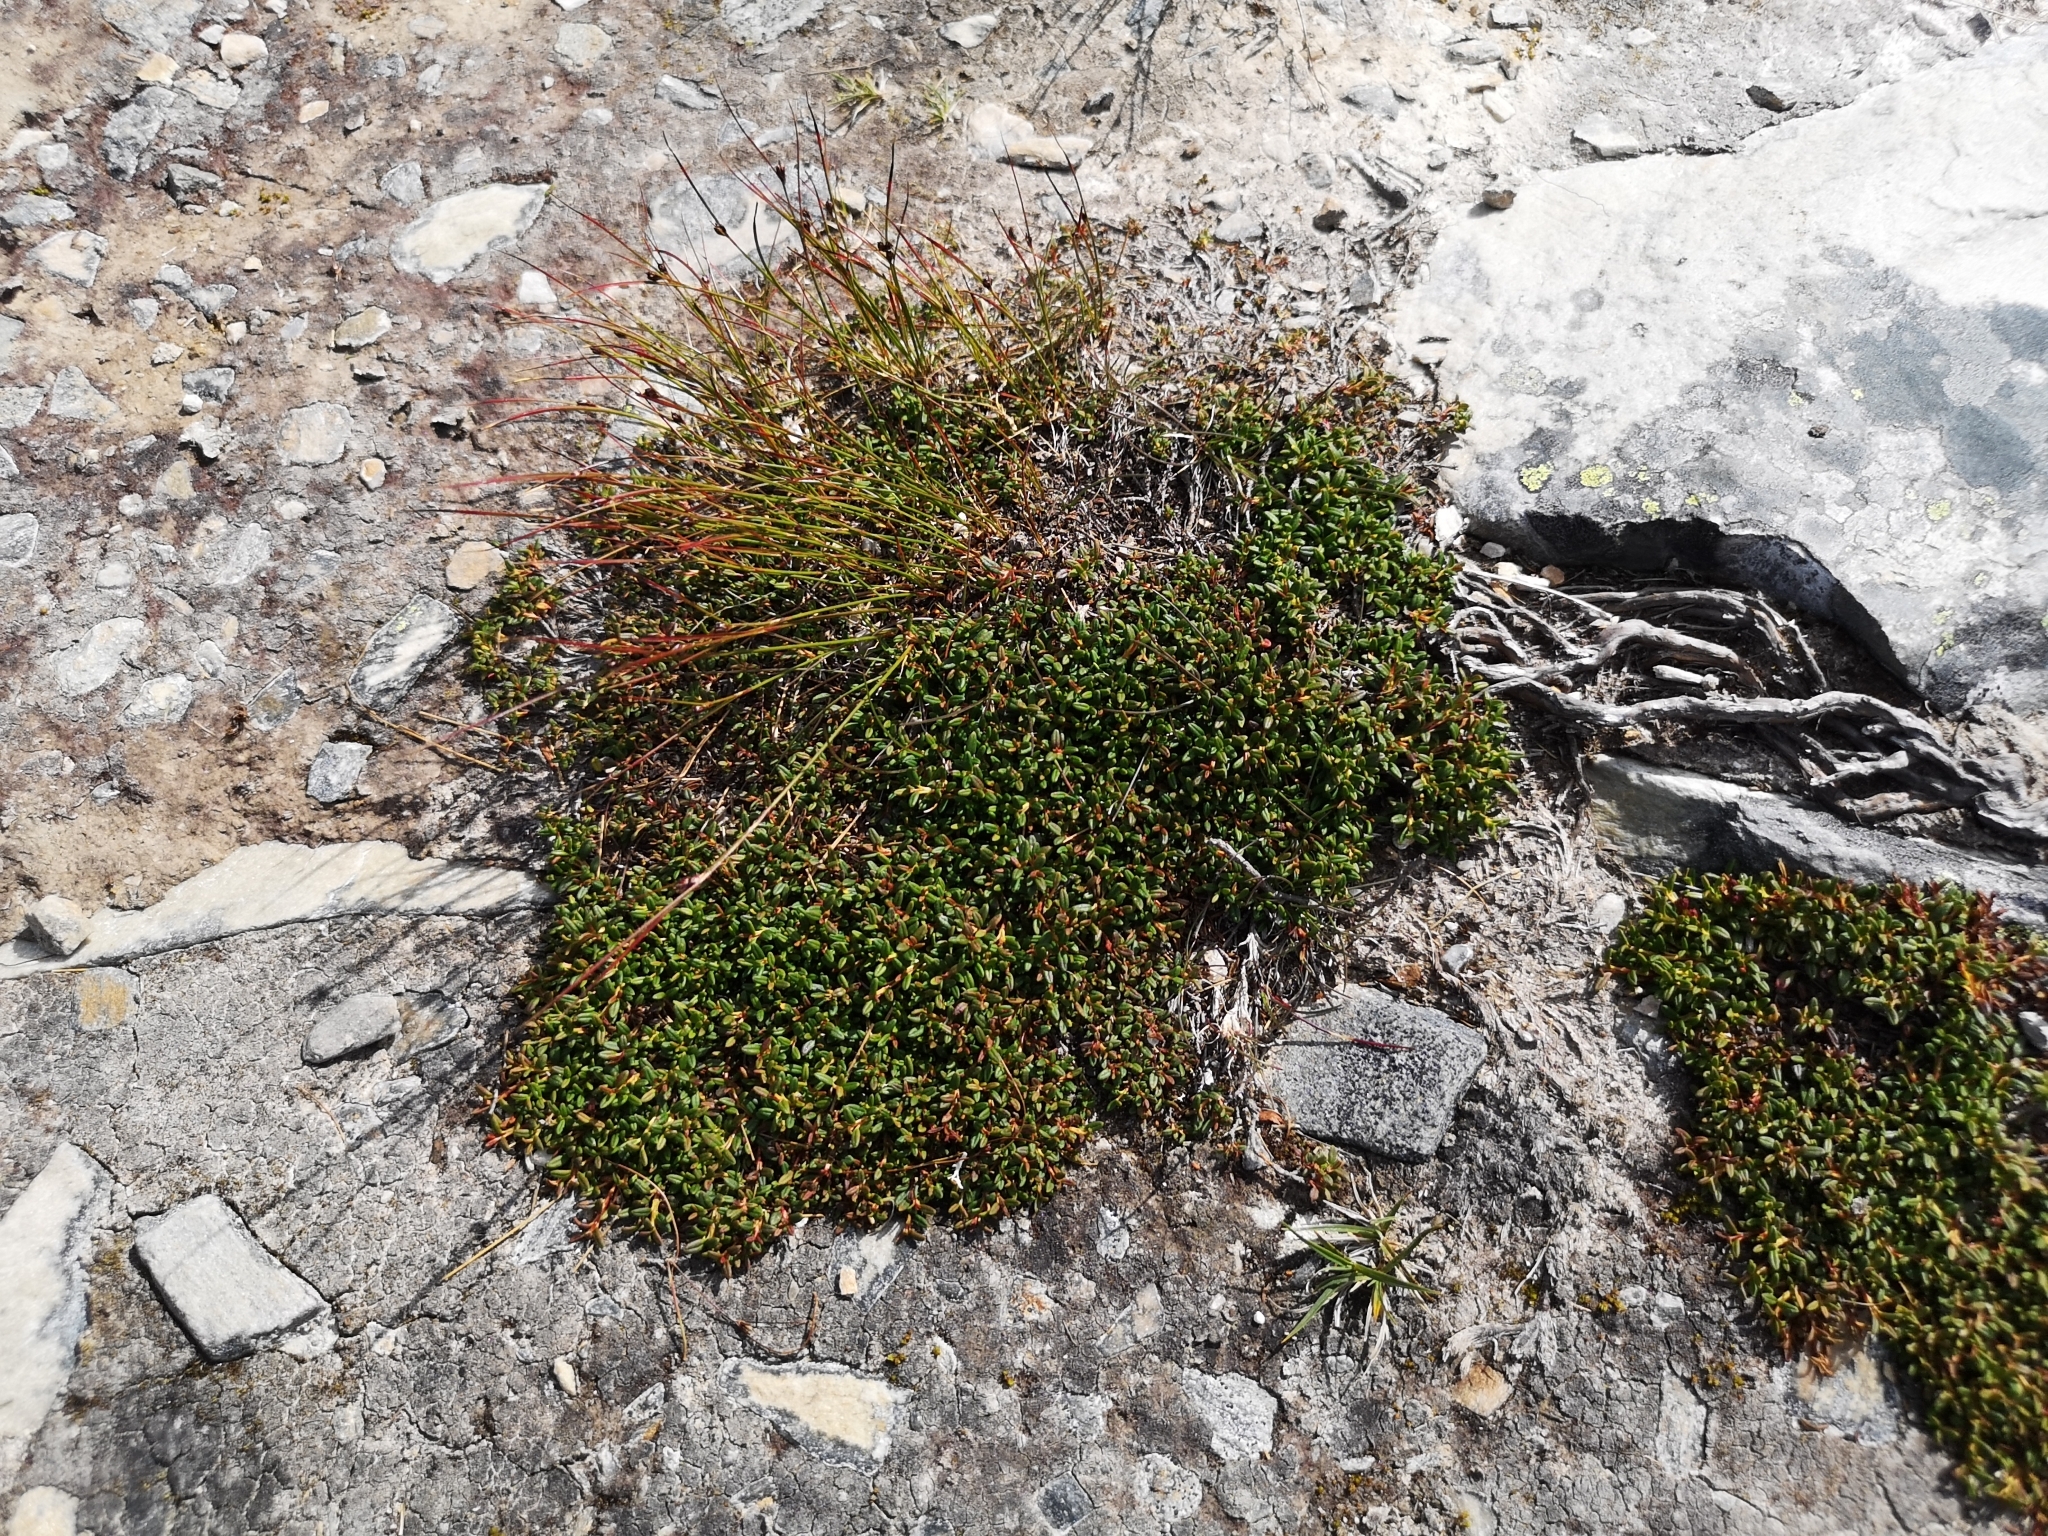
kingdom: Plantae
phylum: Tracheophyta
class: Magnoliopsida
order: Ericales
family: Ericaceae
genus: Kalmia
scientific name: Kalmia procumbens
